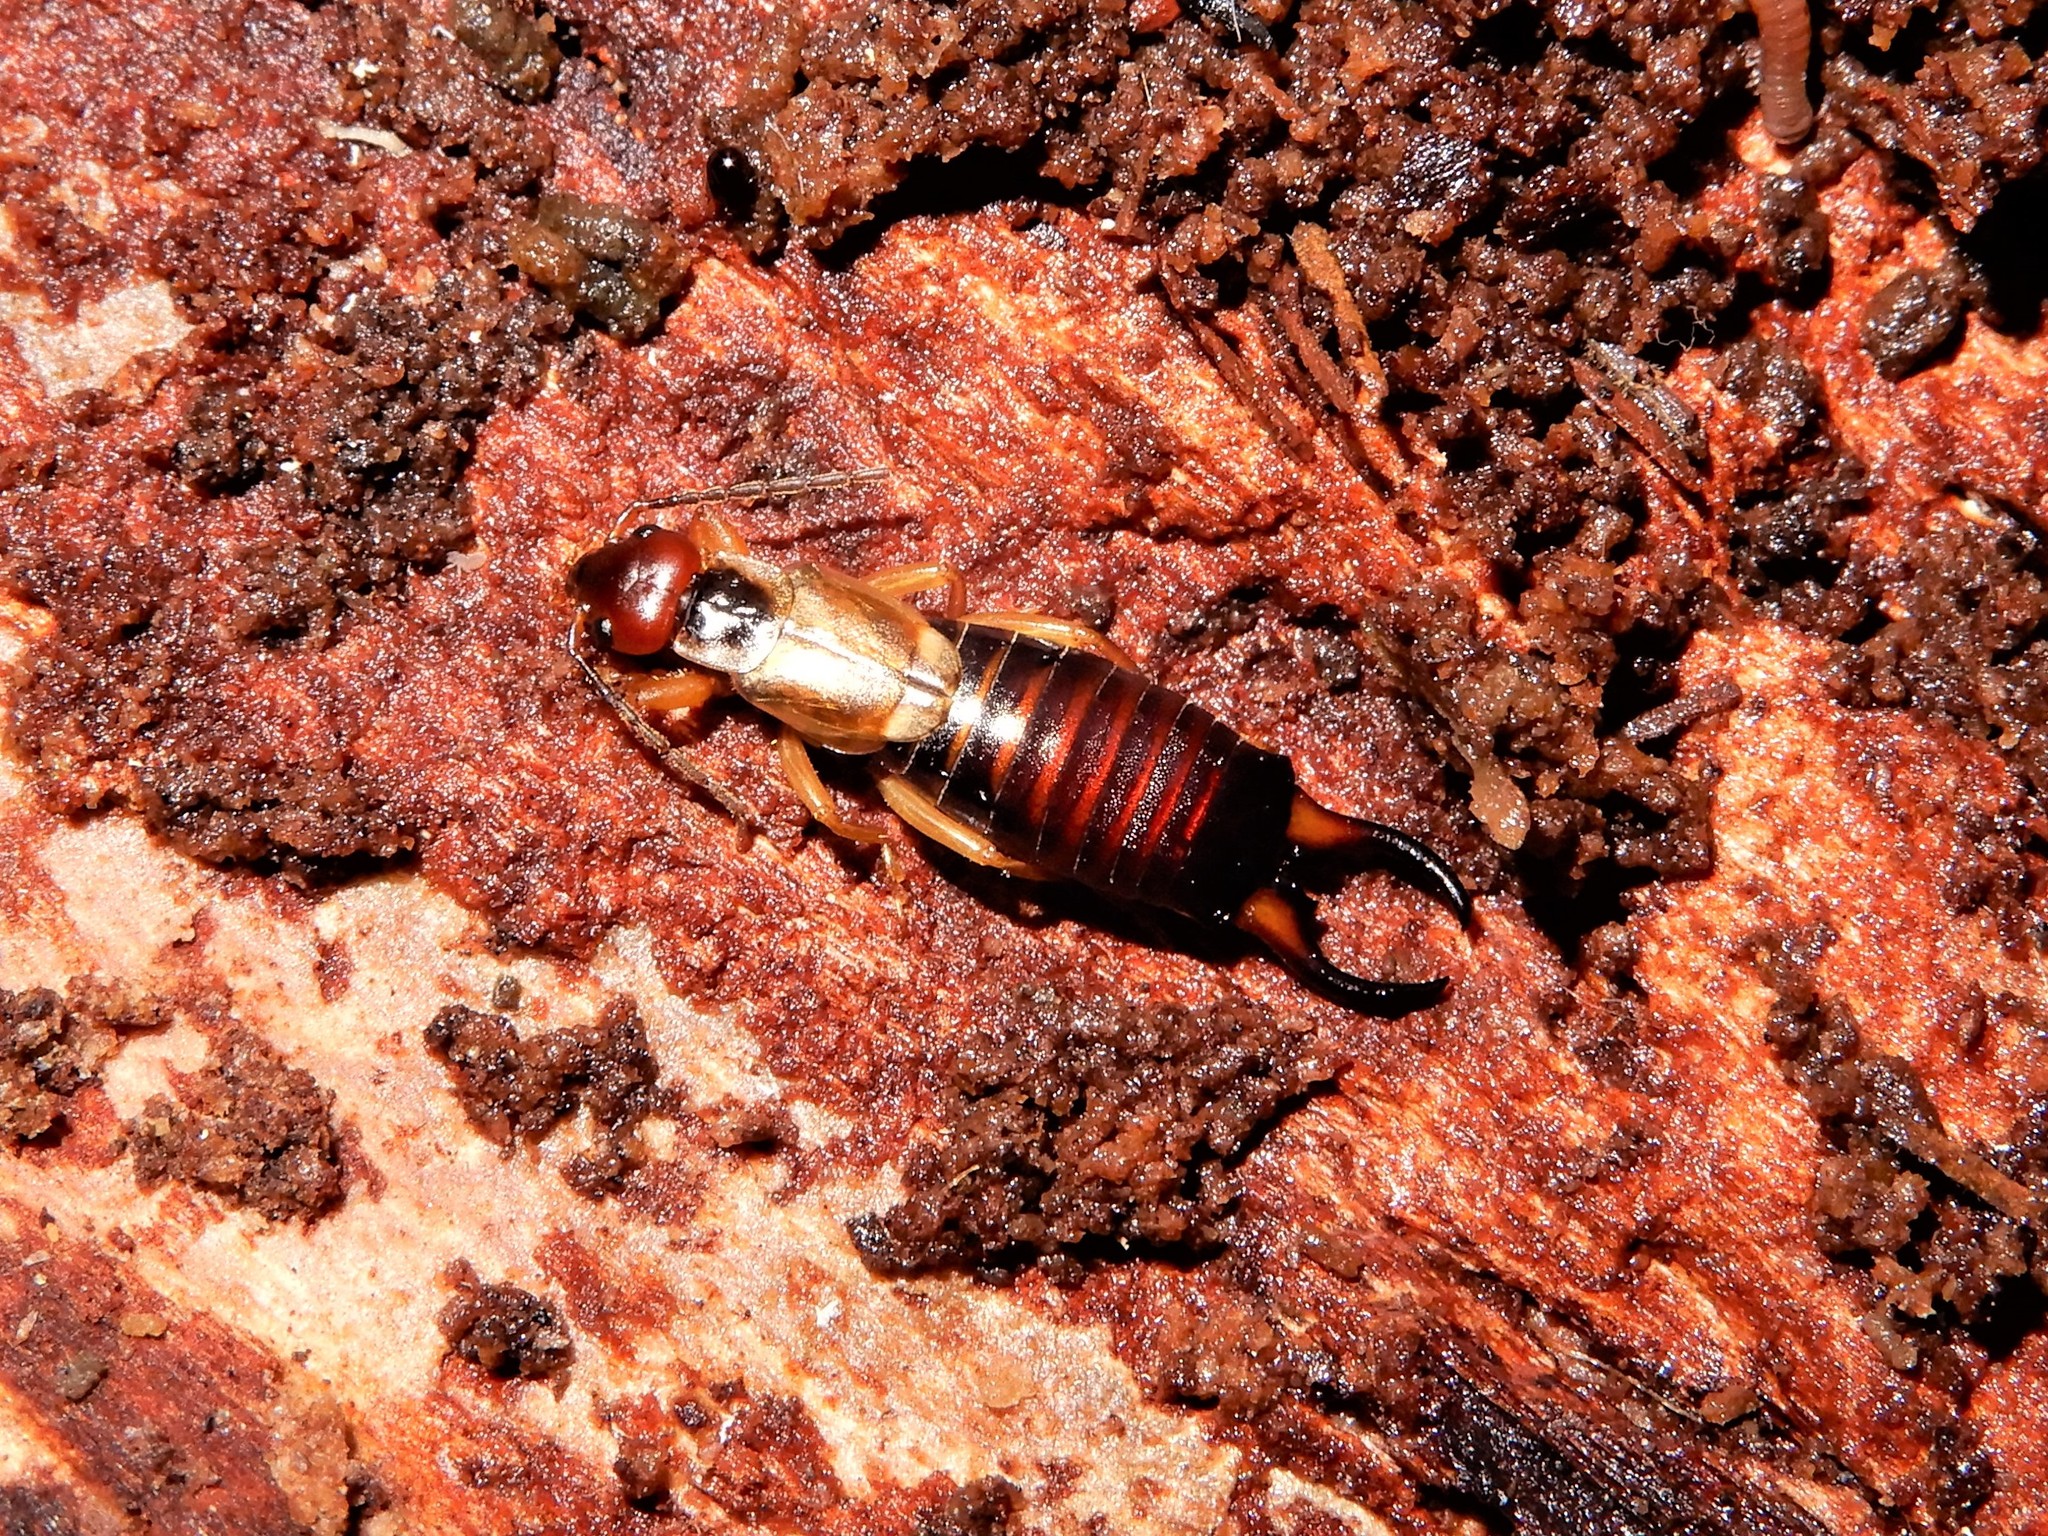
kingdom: Animalia
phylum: Arthropoda
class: Insecta
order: Dermaptera
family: Forficulidae
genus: Forficula
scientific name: Forficula
